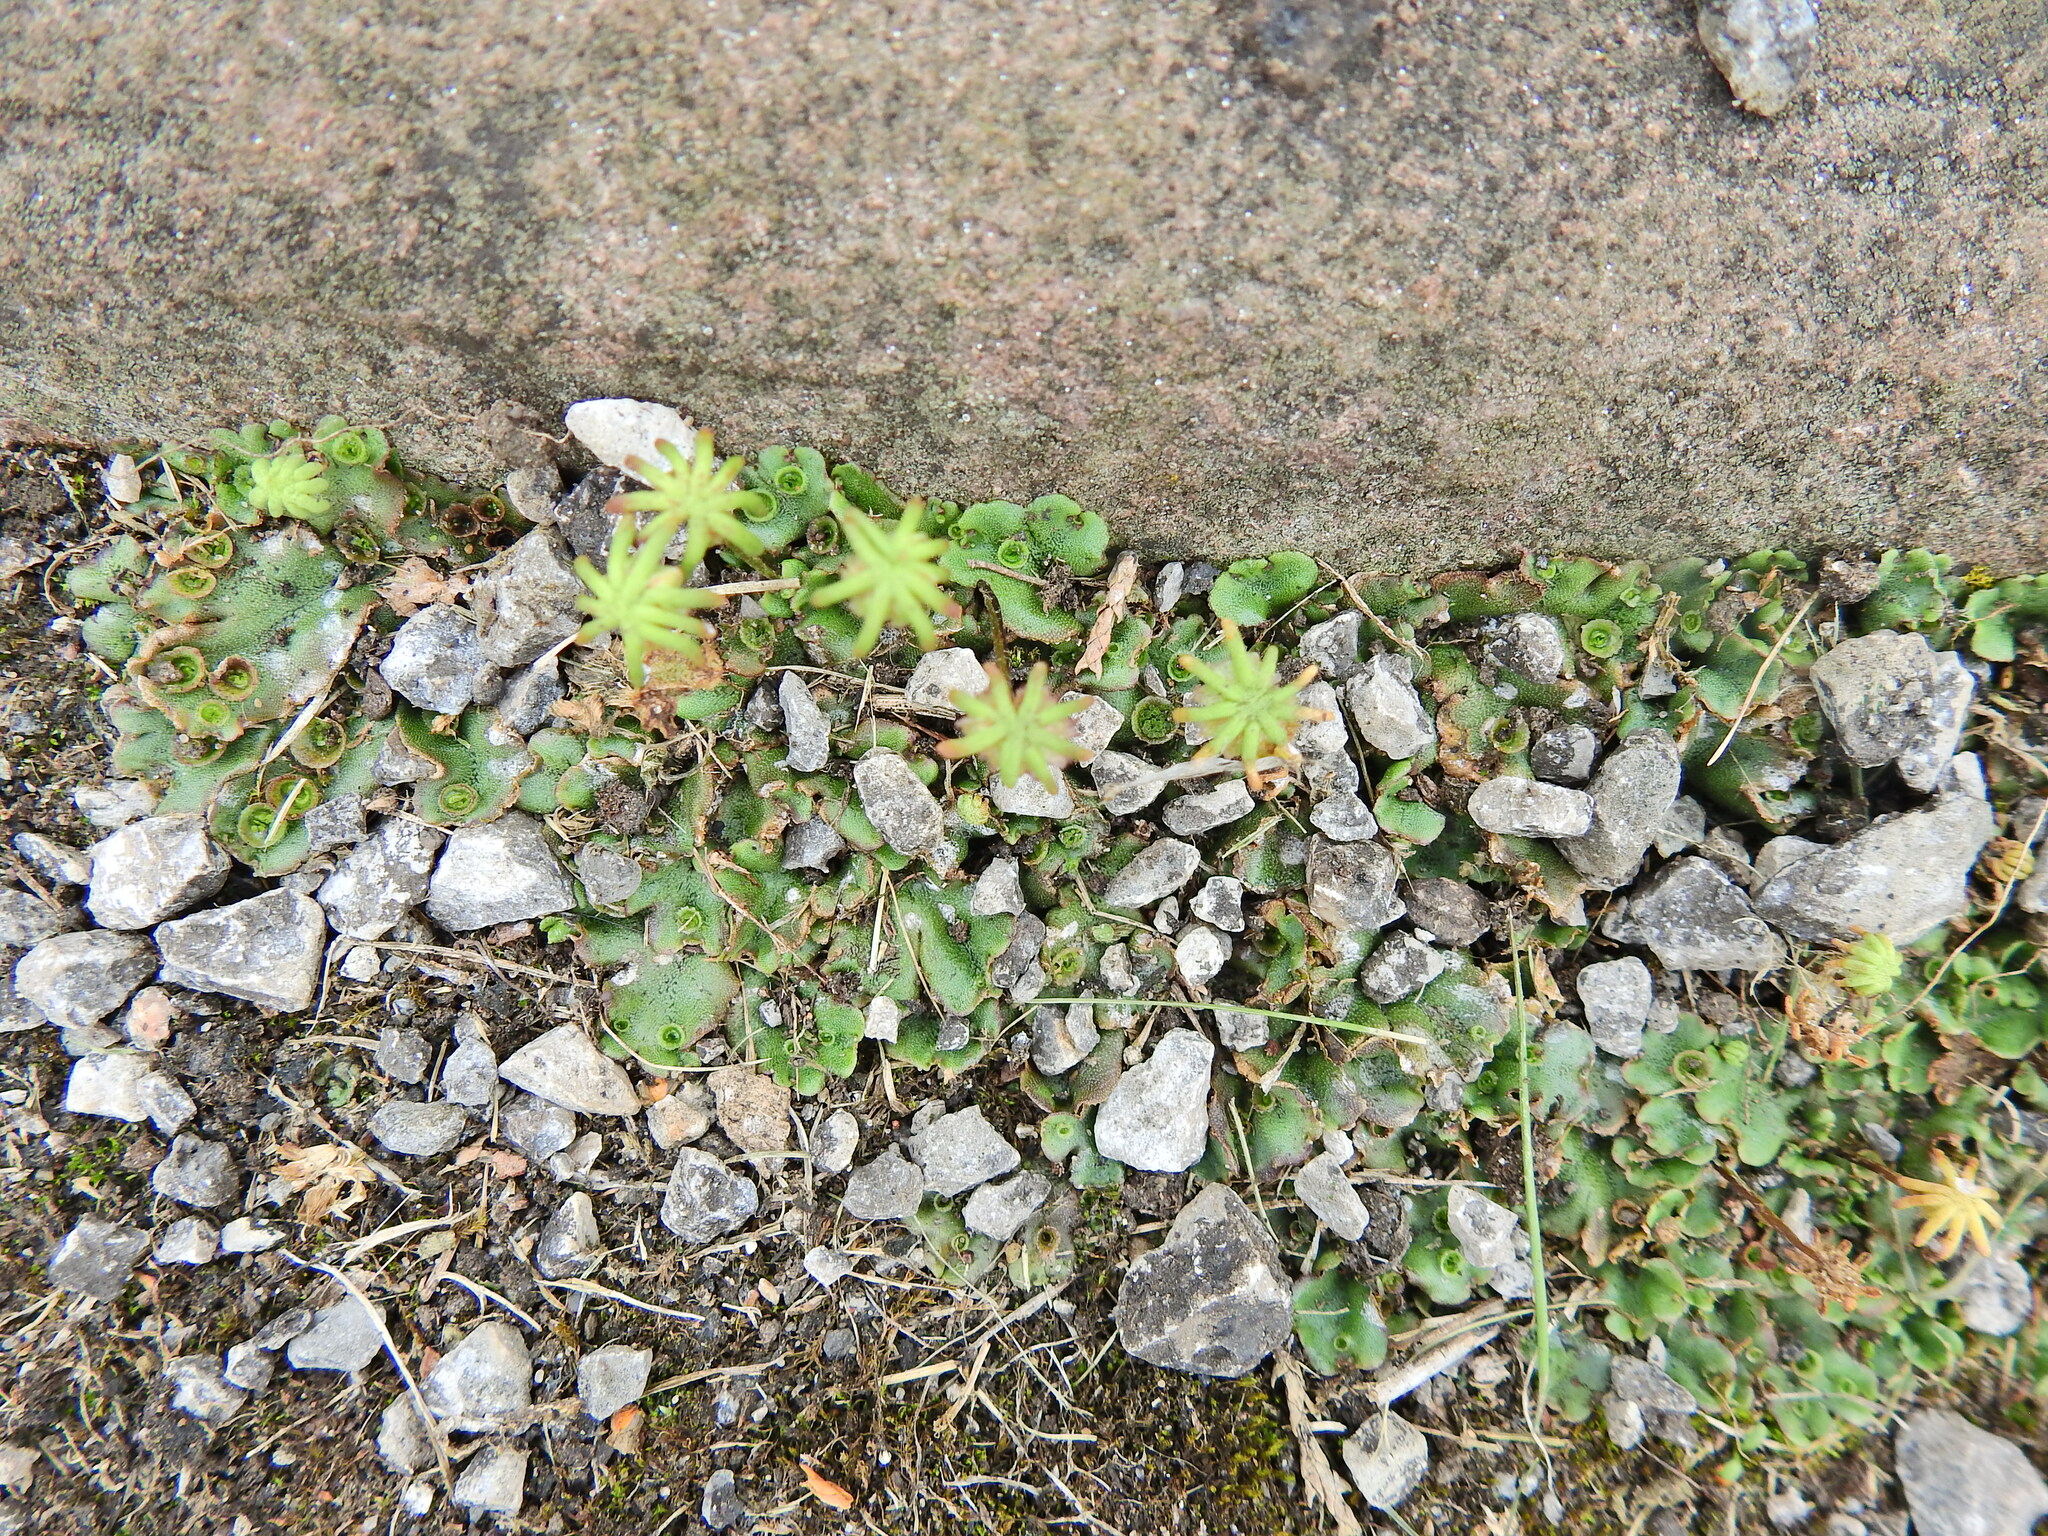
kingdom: Plantae
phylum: Marchantiophyta
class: Marchantiopsida
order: Marchantiales
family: Marchantiaceae
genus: Marchantia
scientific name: Marchantia polymorpha
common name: Common liverwort
